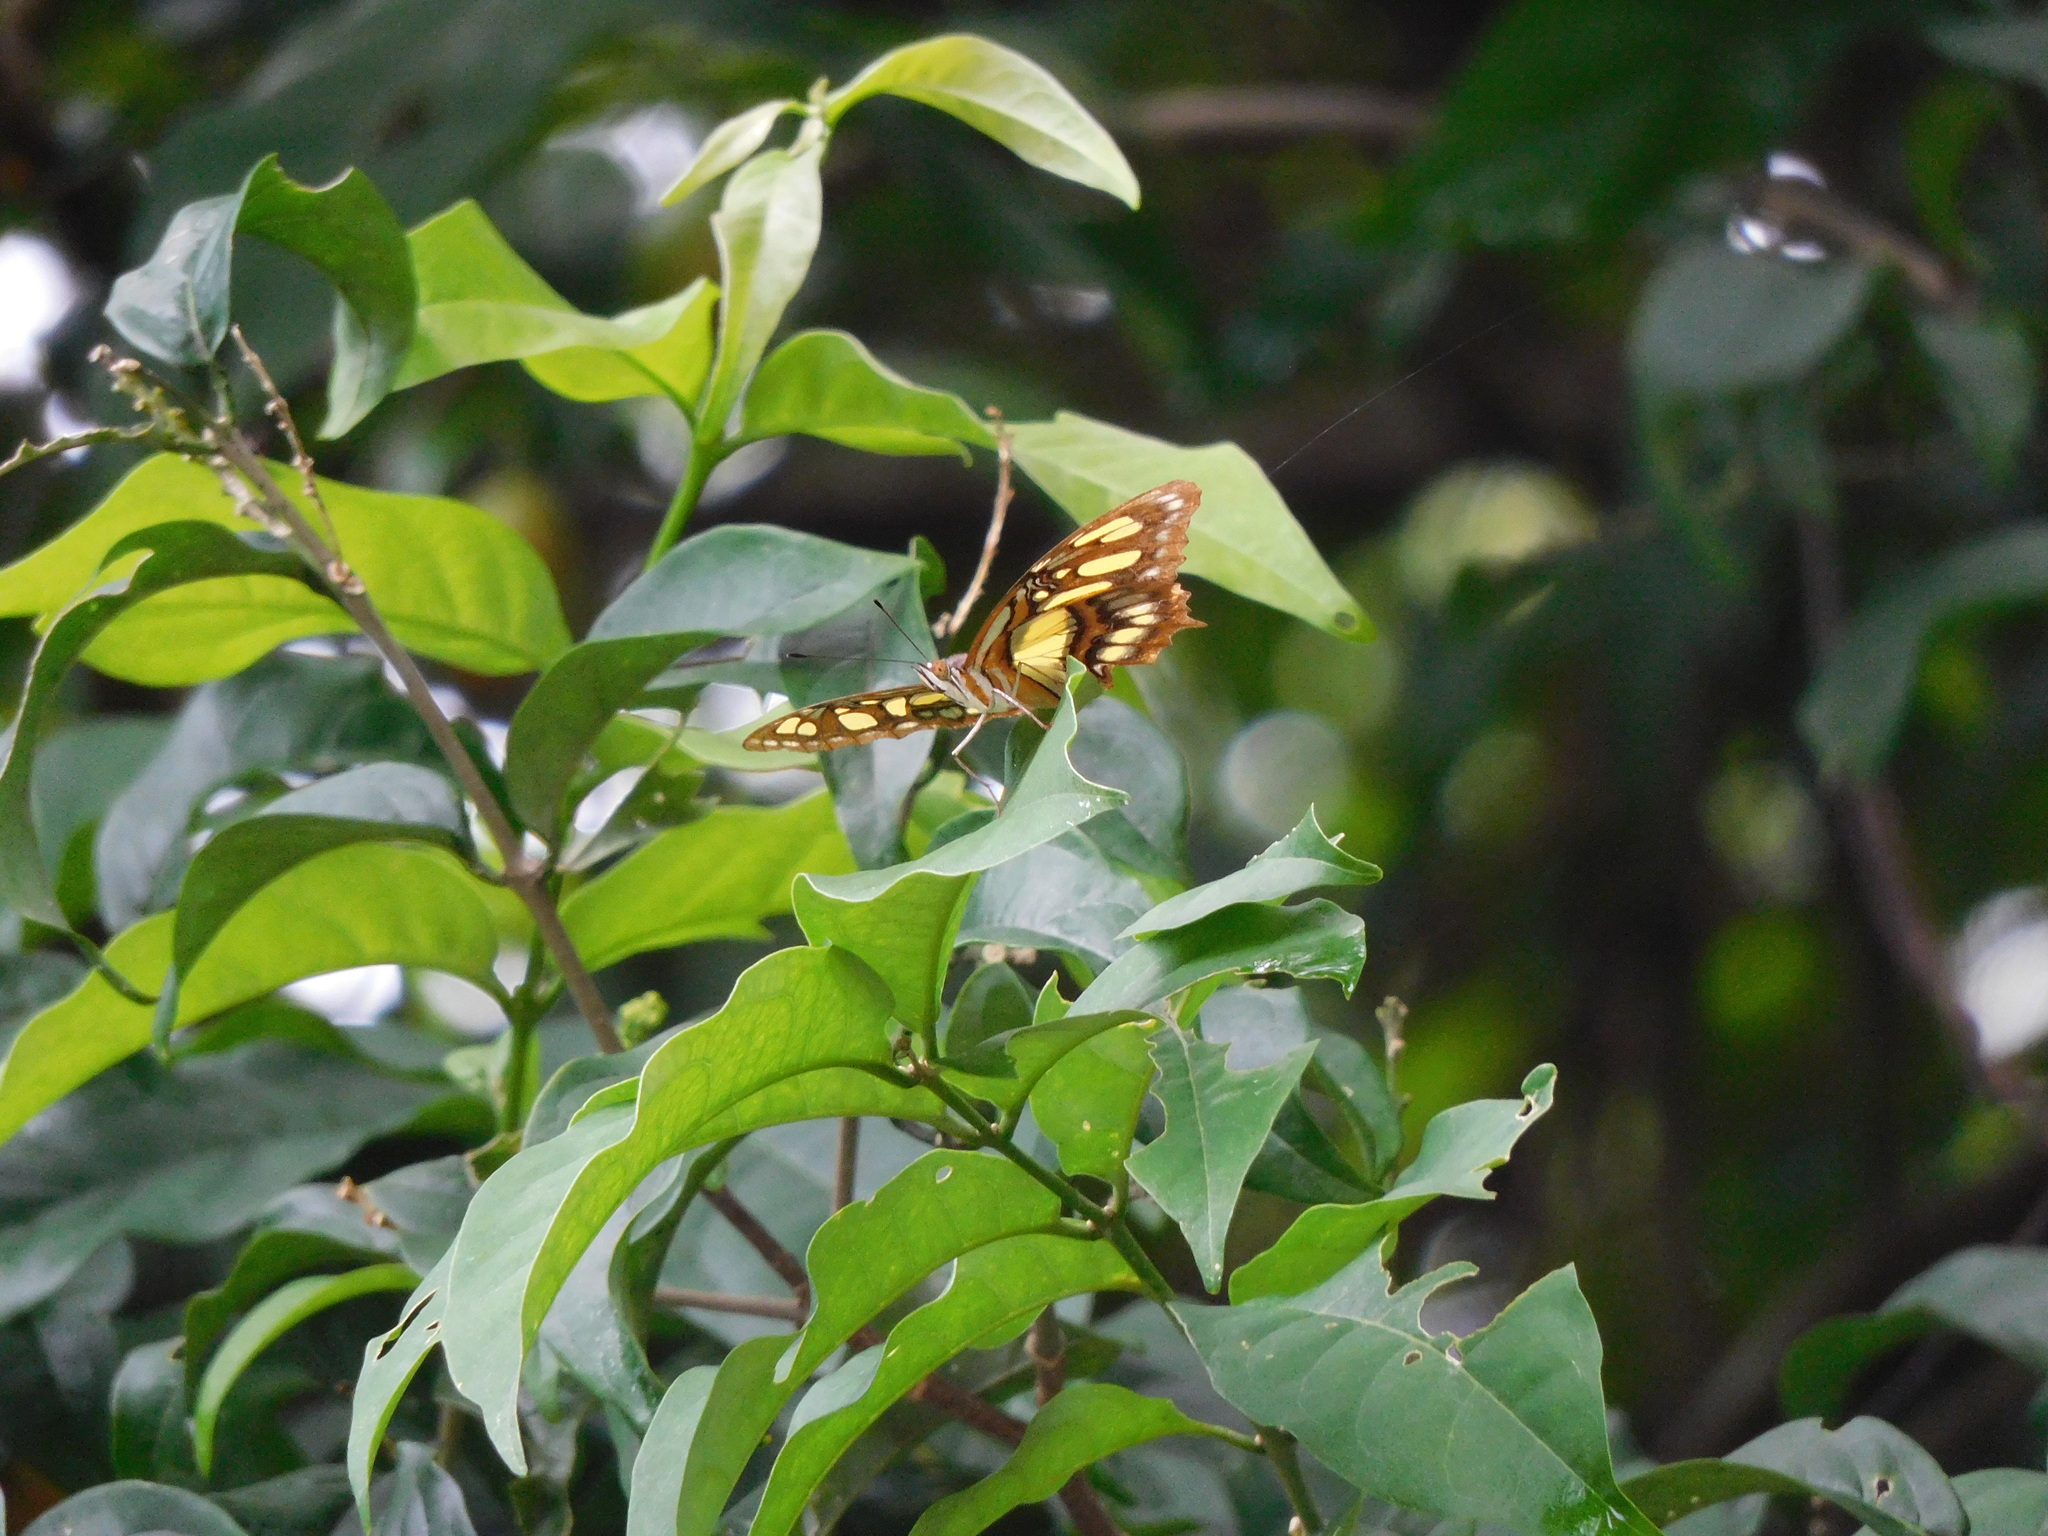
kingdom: Animalia
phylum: Arthropoda
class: Insecta
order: Lepidoptera
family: Nymphalidae
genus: Siproeta
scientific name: Siproeta stelenes
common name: Malachite
